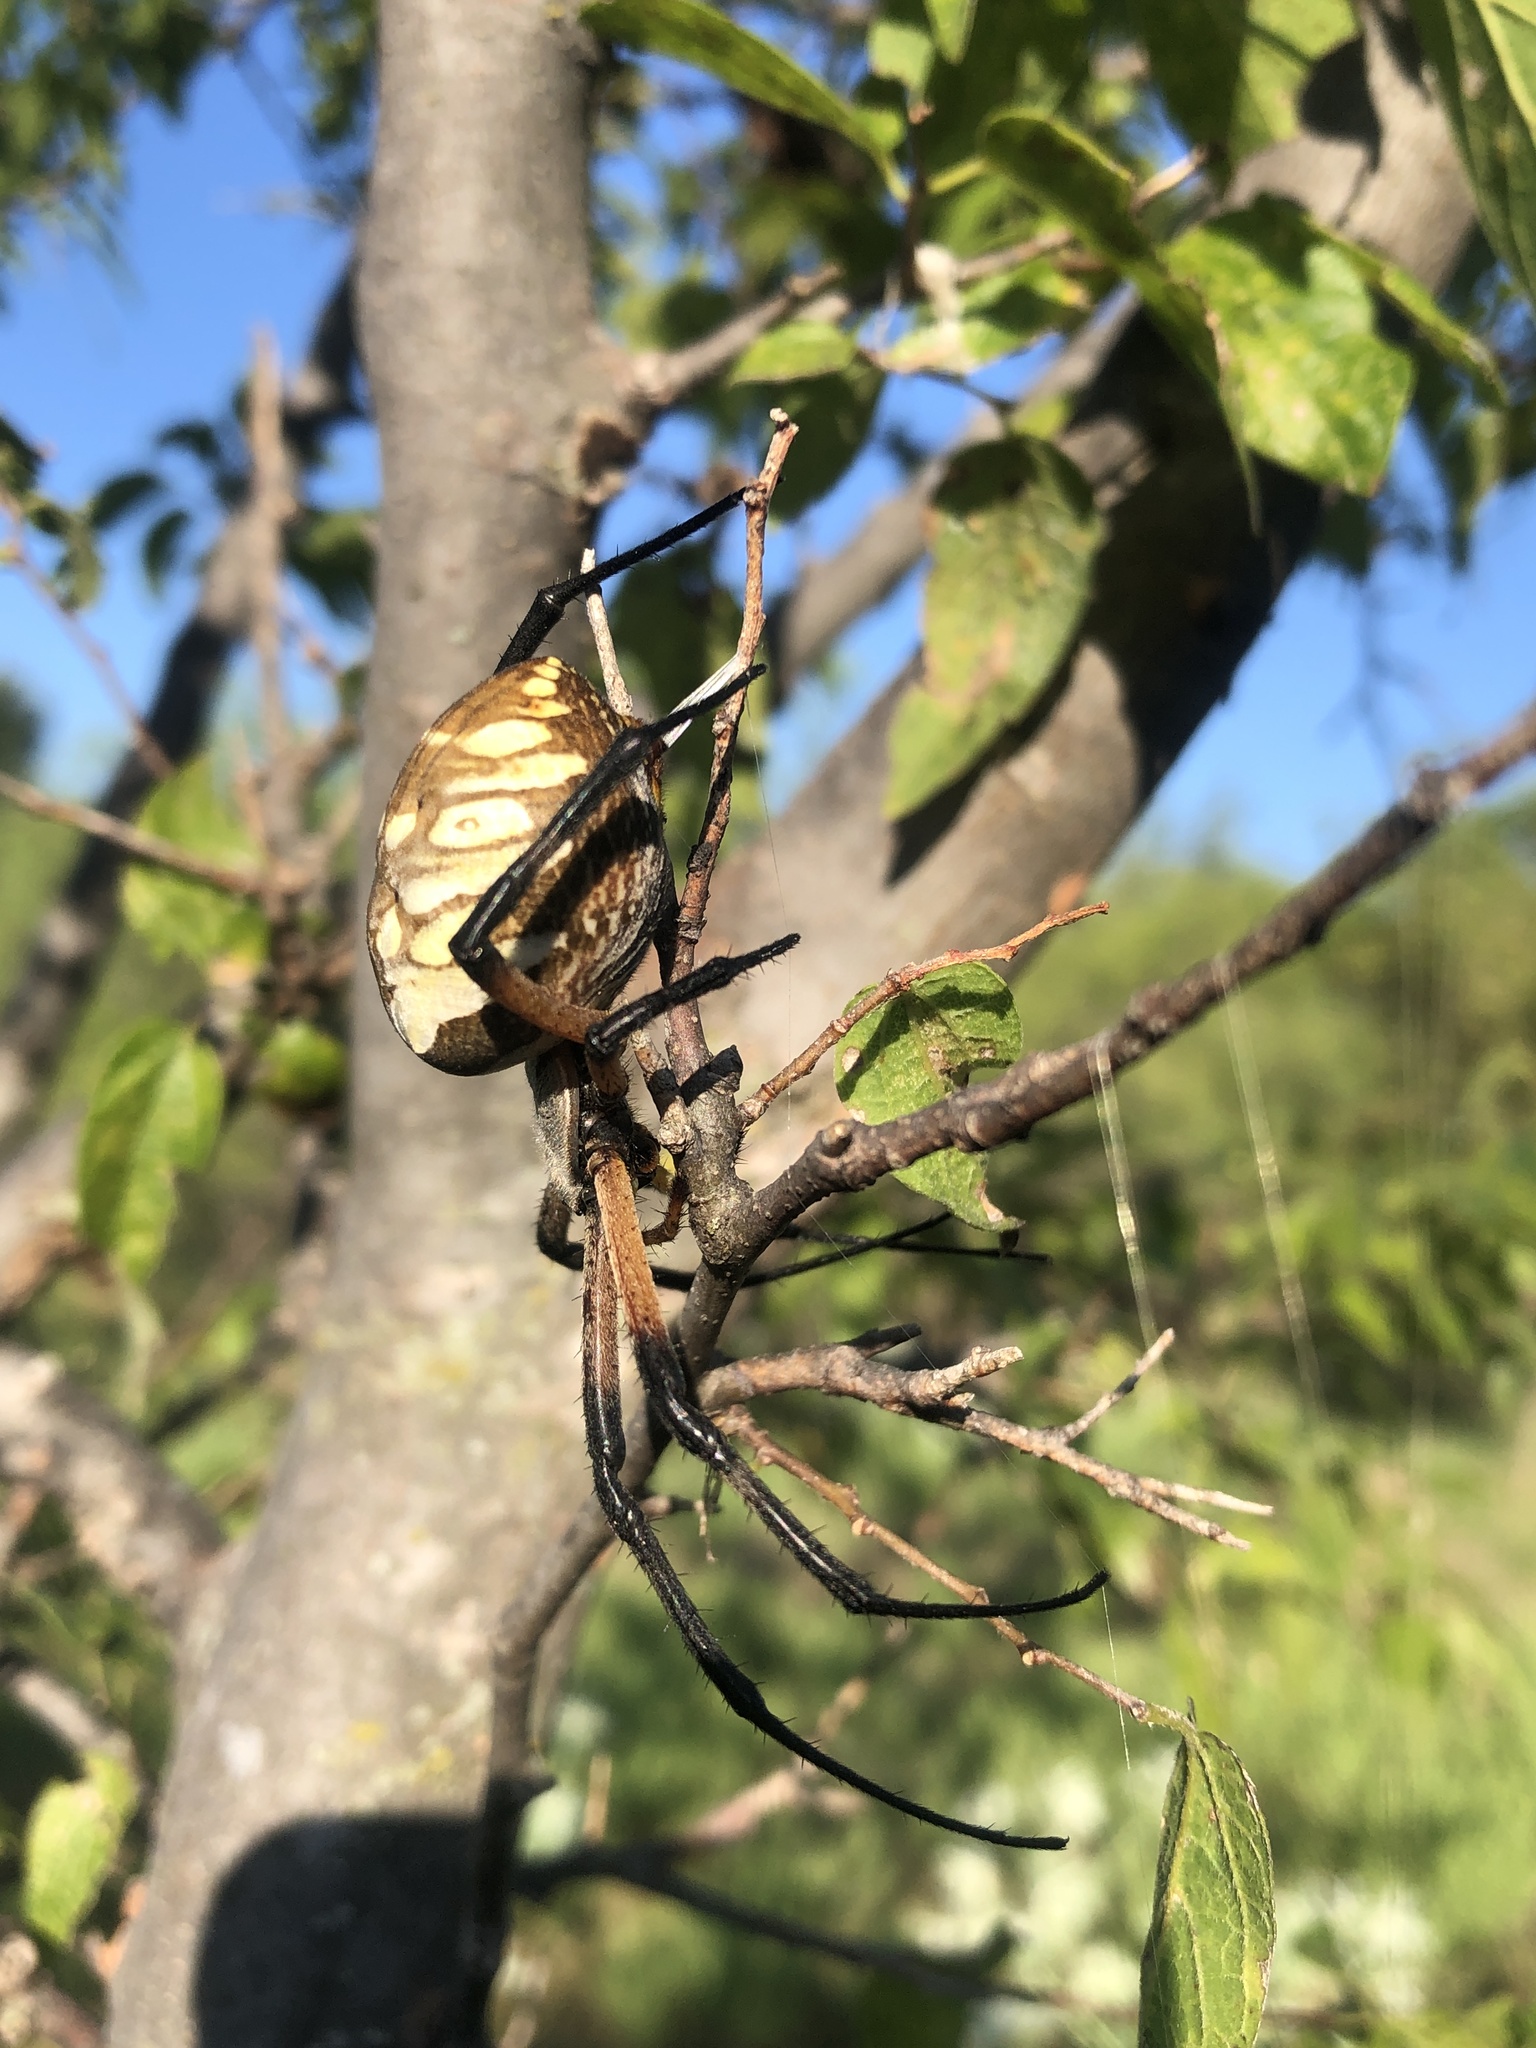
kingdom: Animalia
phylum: Arthropoda
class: Arachnida
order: Araneae
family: Araneidae
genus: Argiope
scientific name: Argiope aurantia
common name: Orb weavers
